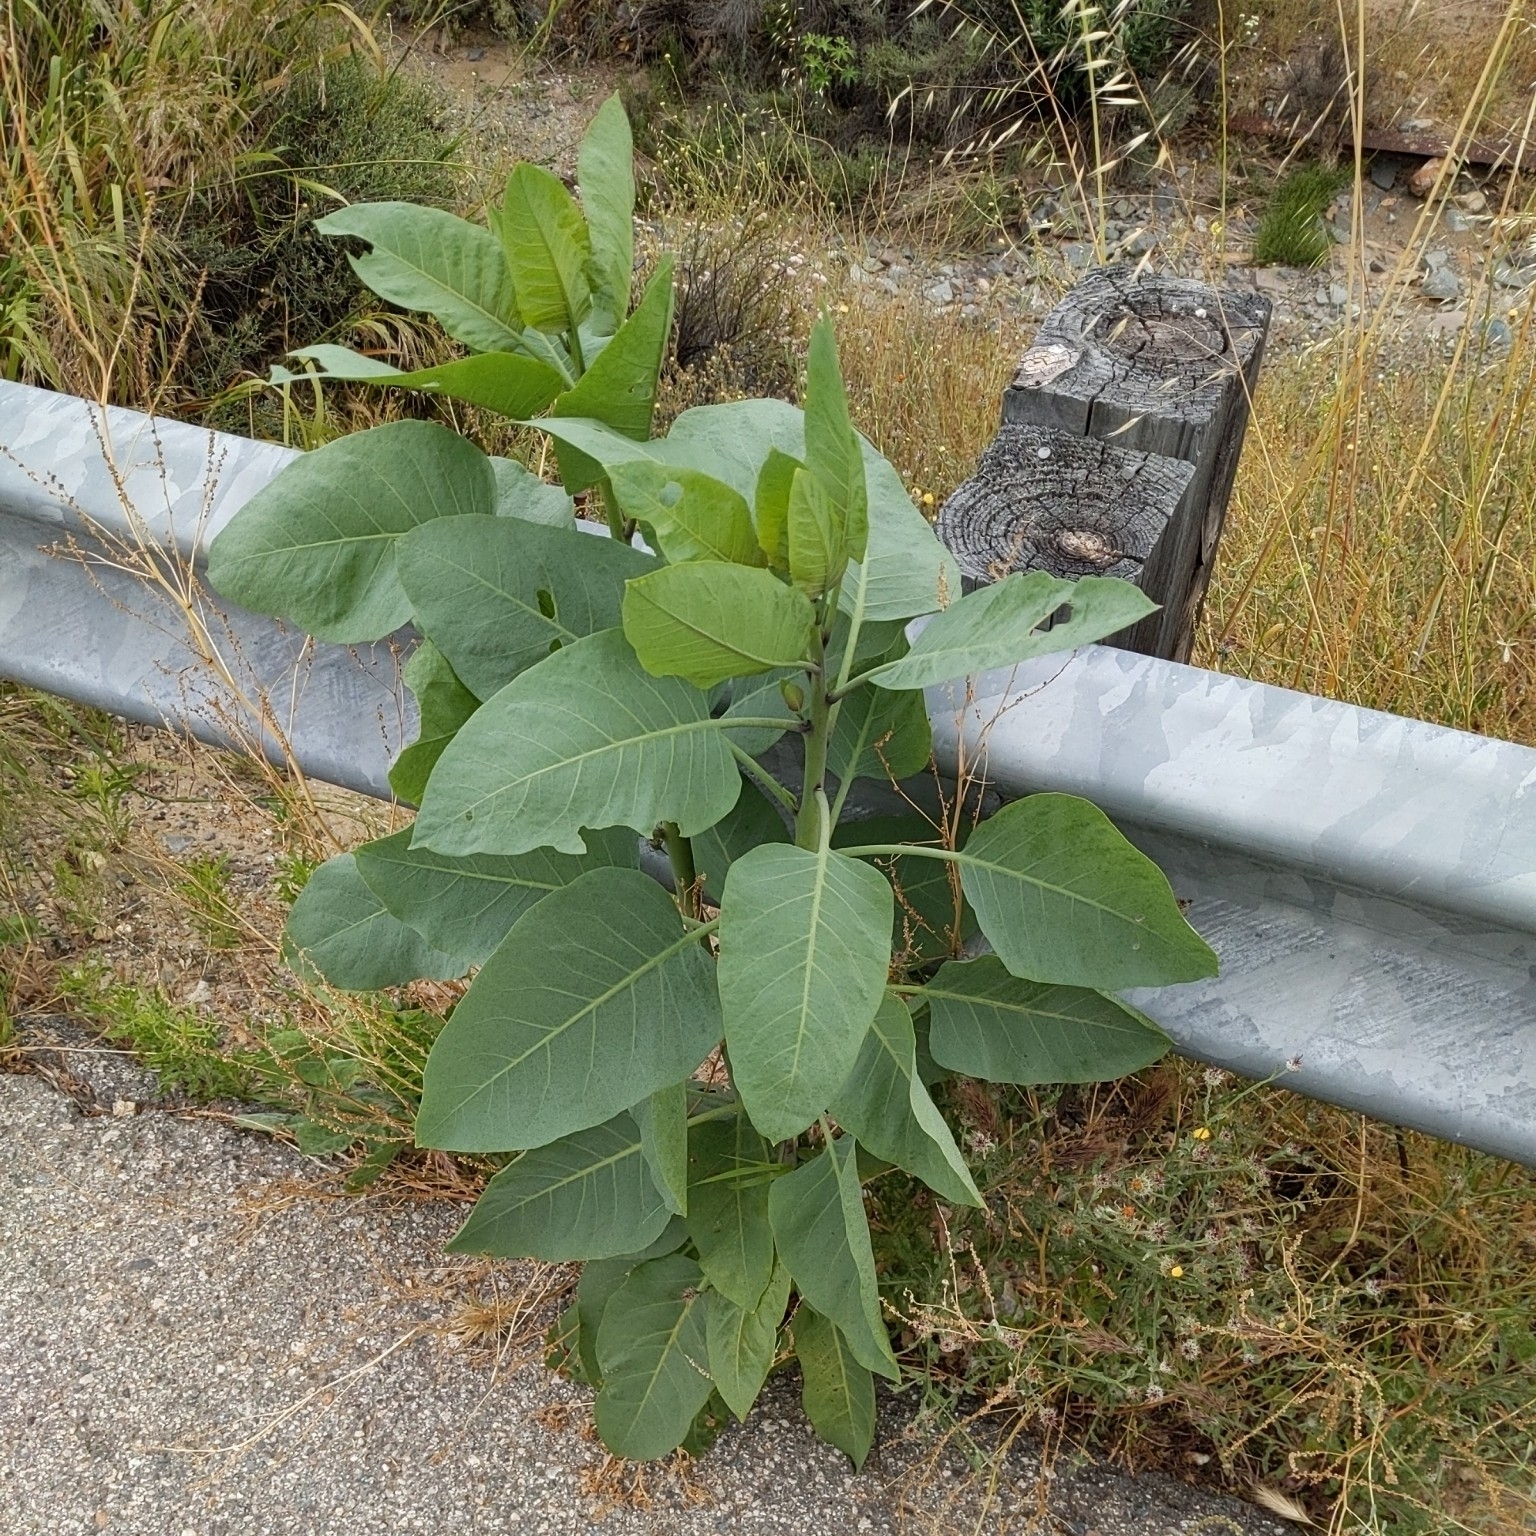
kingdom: Plantae
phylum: Tracheophyta
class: Magnoliopsida
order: Solanales
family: Solanaceae
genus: Nicotiana
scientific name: Nicotiana glauca
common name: Tree tobacco
